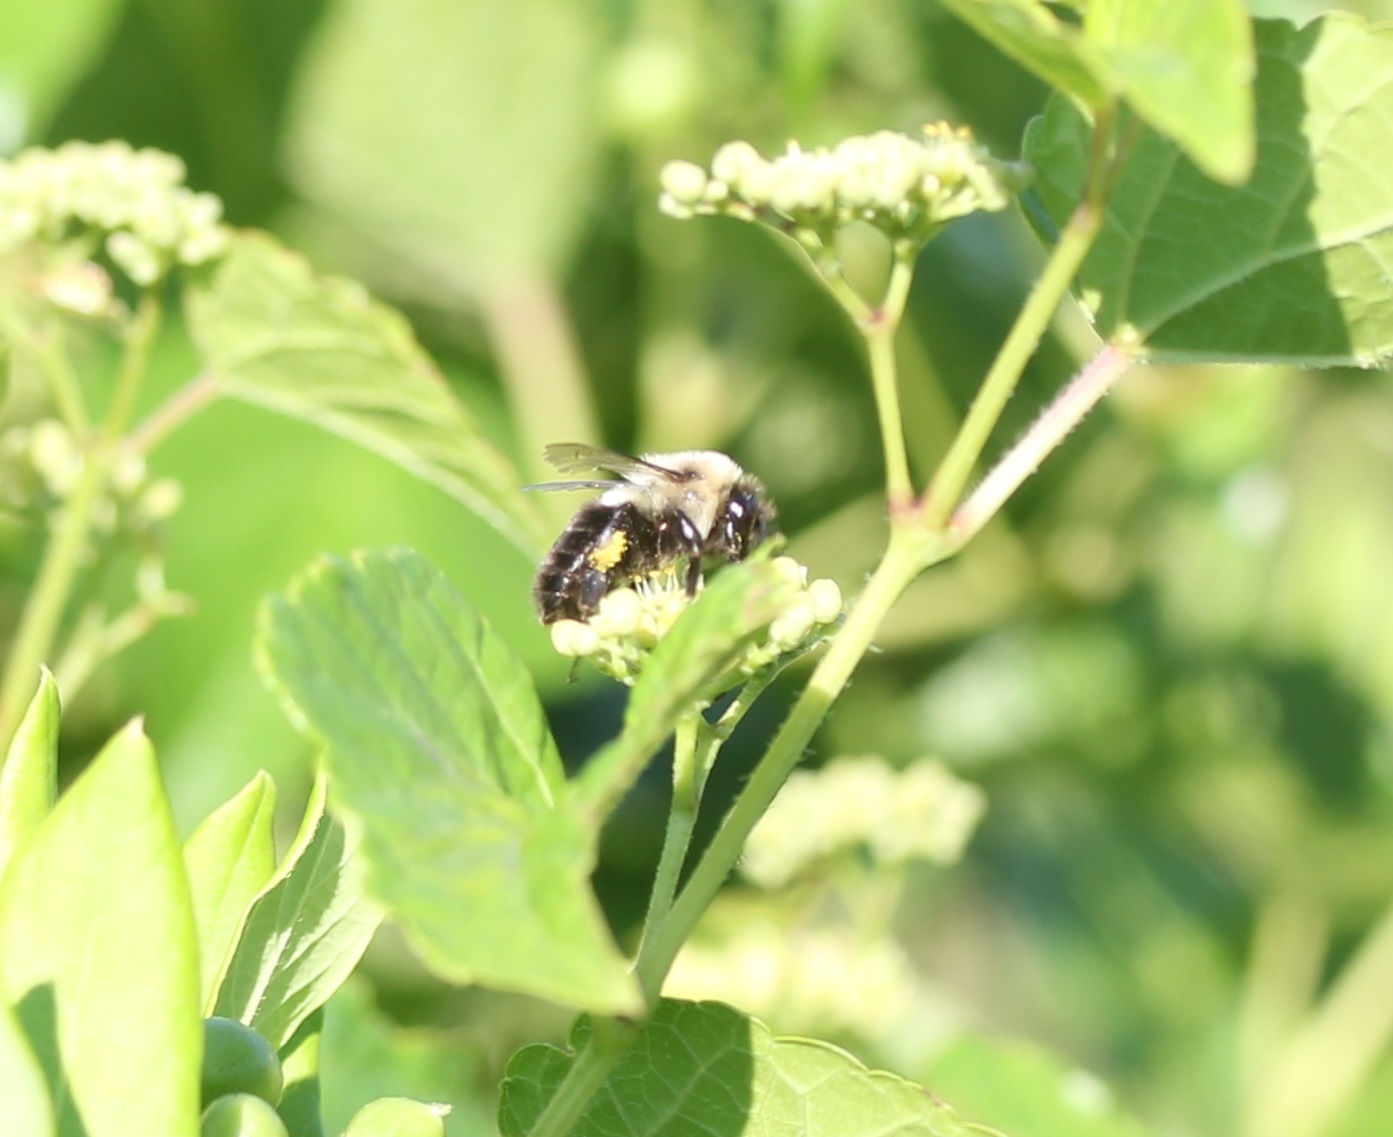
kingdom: Animalia
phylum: Arthropoda
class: Insecta
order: Hymenoptera
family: Apidae
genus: Bombus
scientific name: Bombus impatiens
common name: Common eastern bumble bee
